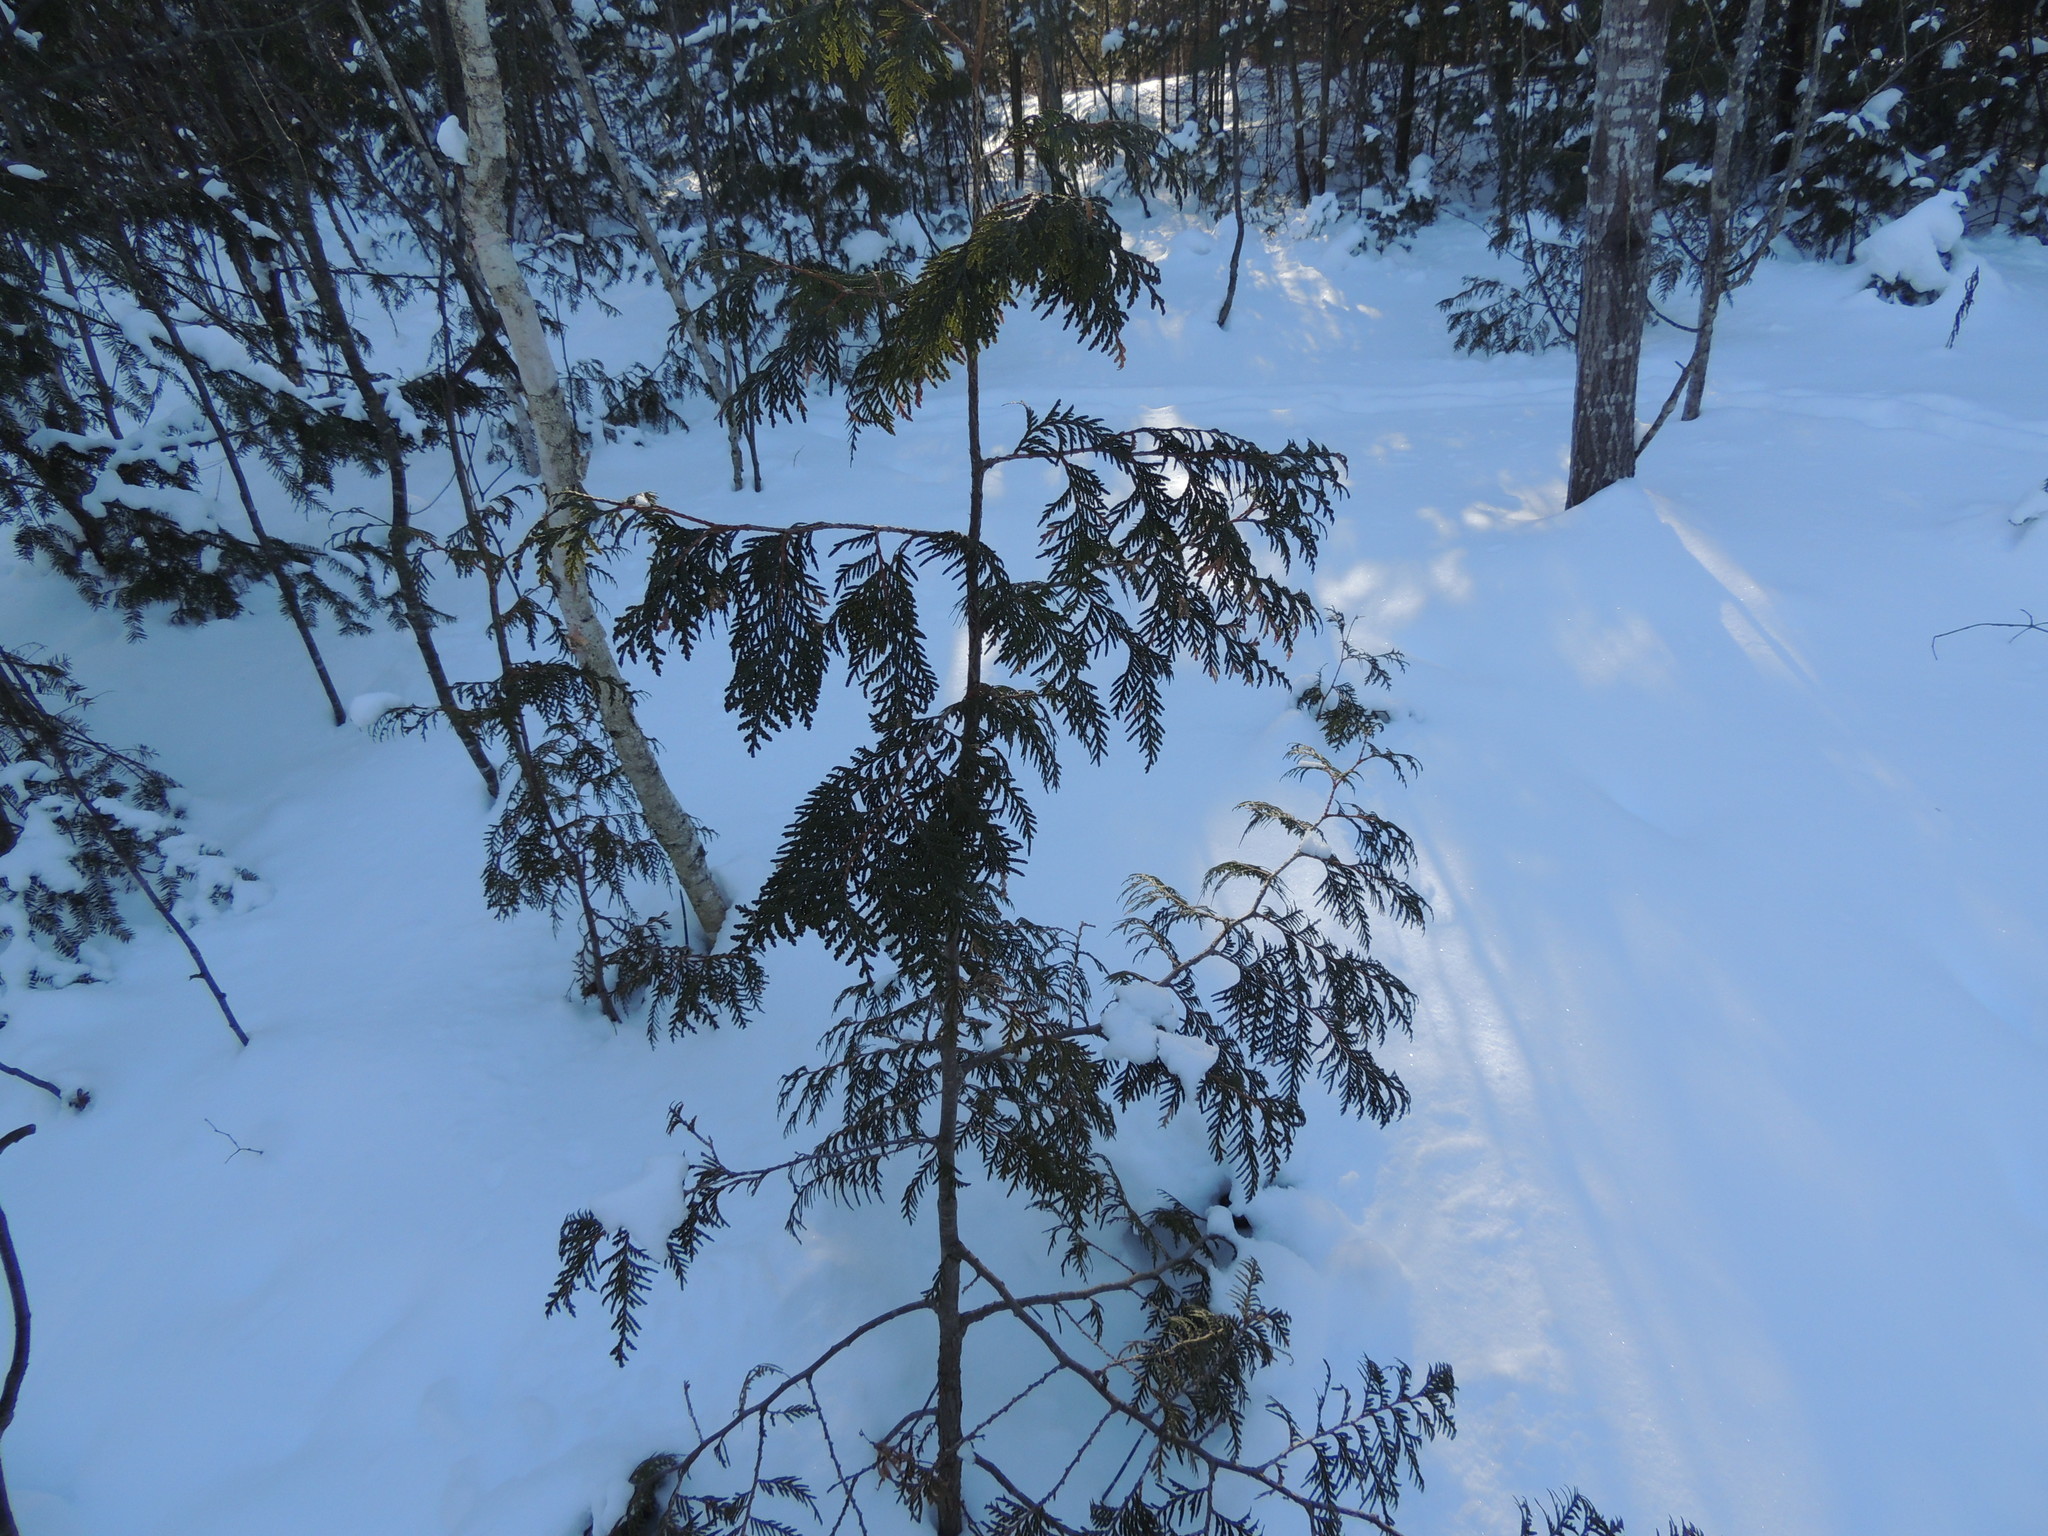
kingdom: Plantae
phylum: Tracheophyta
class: Pinopsida
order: Pinales
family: Cupressaceae
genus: Thuja
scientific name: Thuja occidentalis
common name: Northern white-cedar
